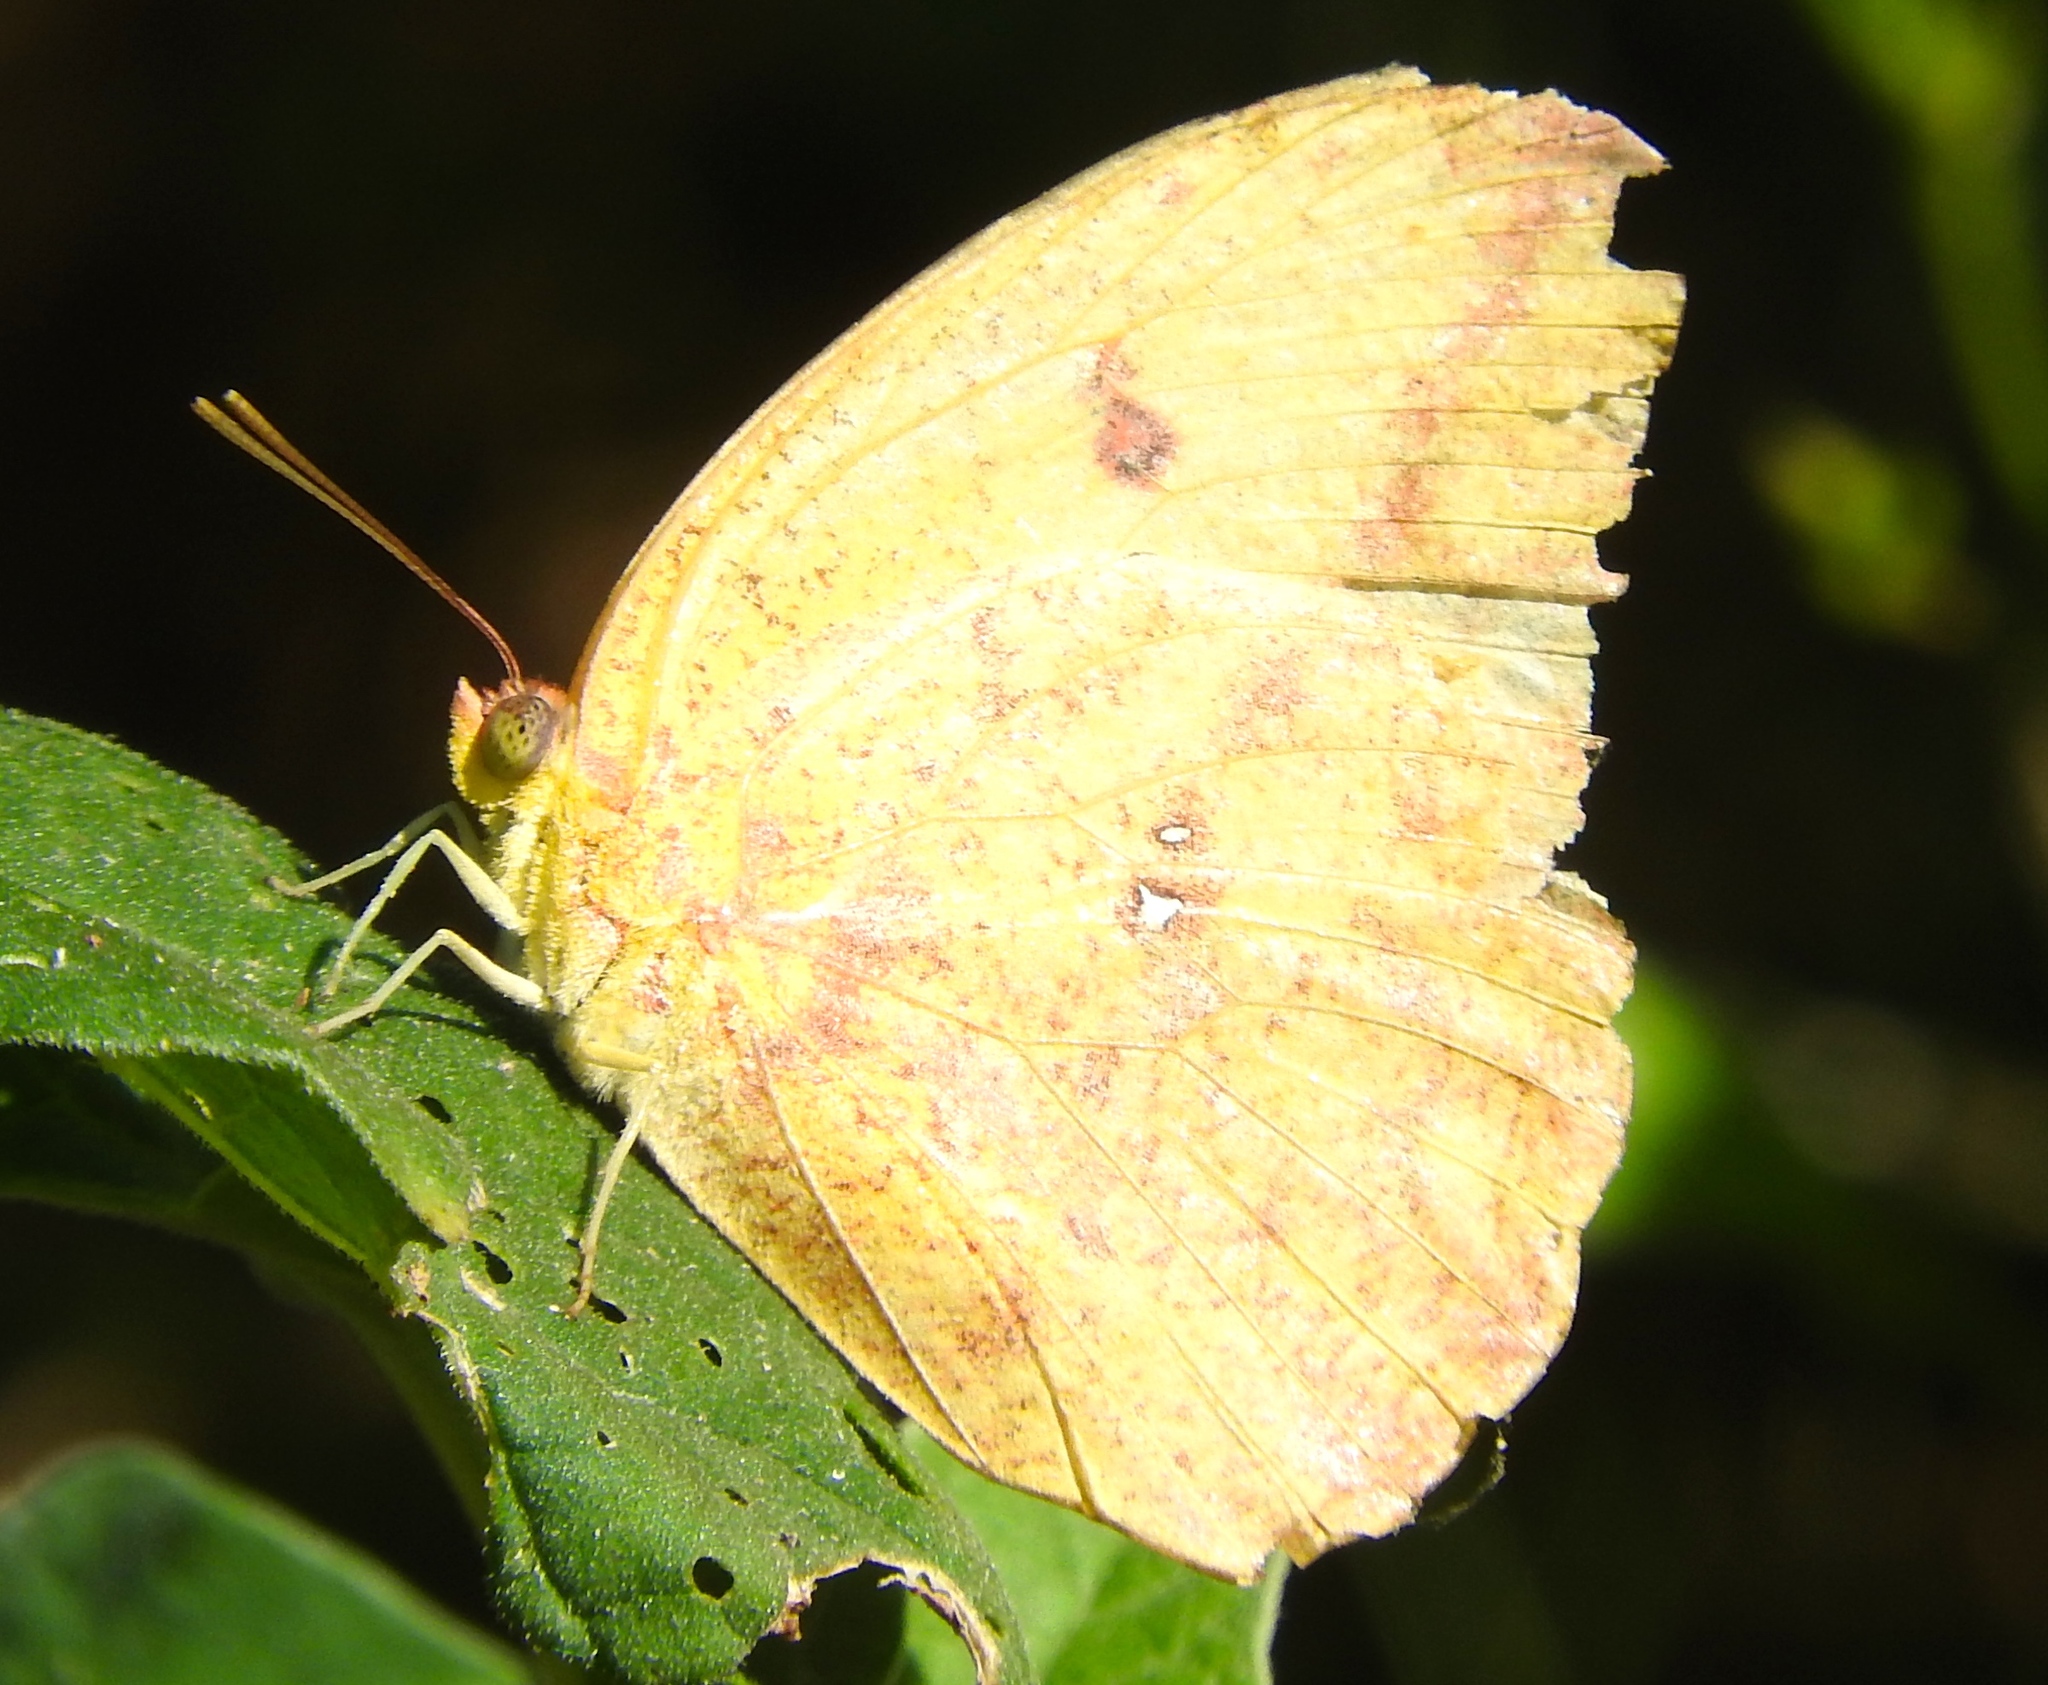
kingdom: Animalia
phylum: Arthropoda
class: Insecta
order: Lepidoptera
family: Pieridae
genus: Phoebis
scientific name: Phoebis agarithe
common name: Large orange sulphur
